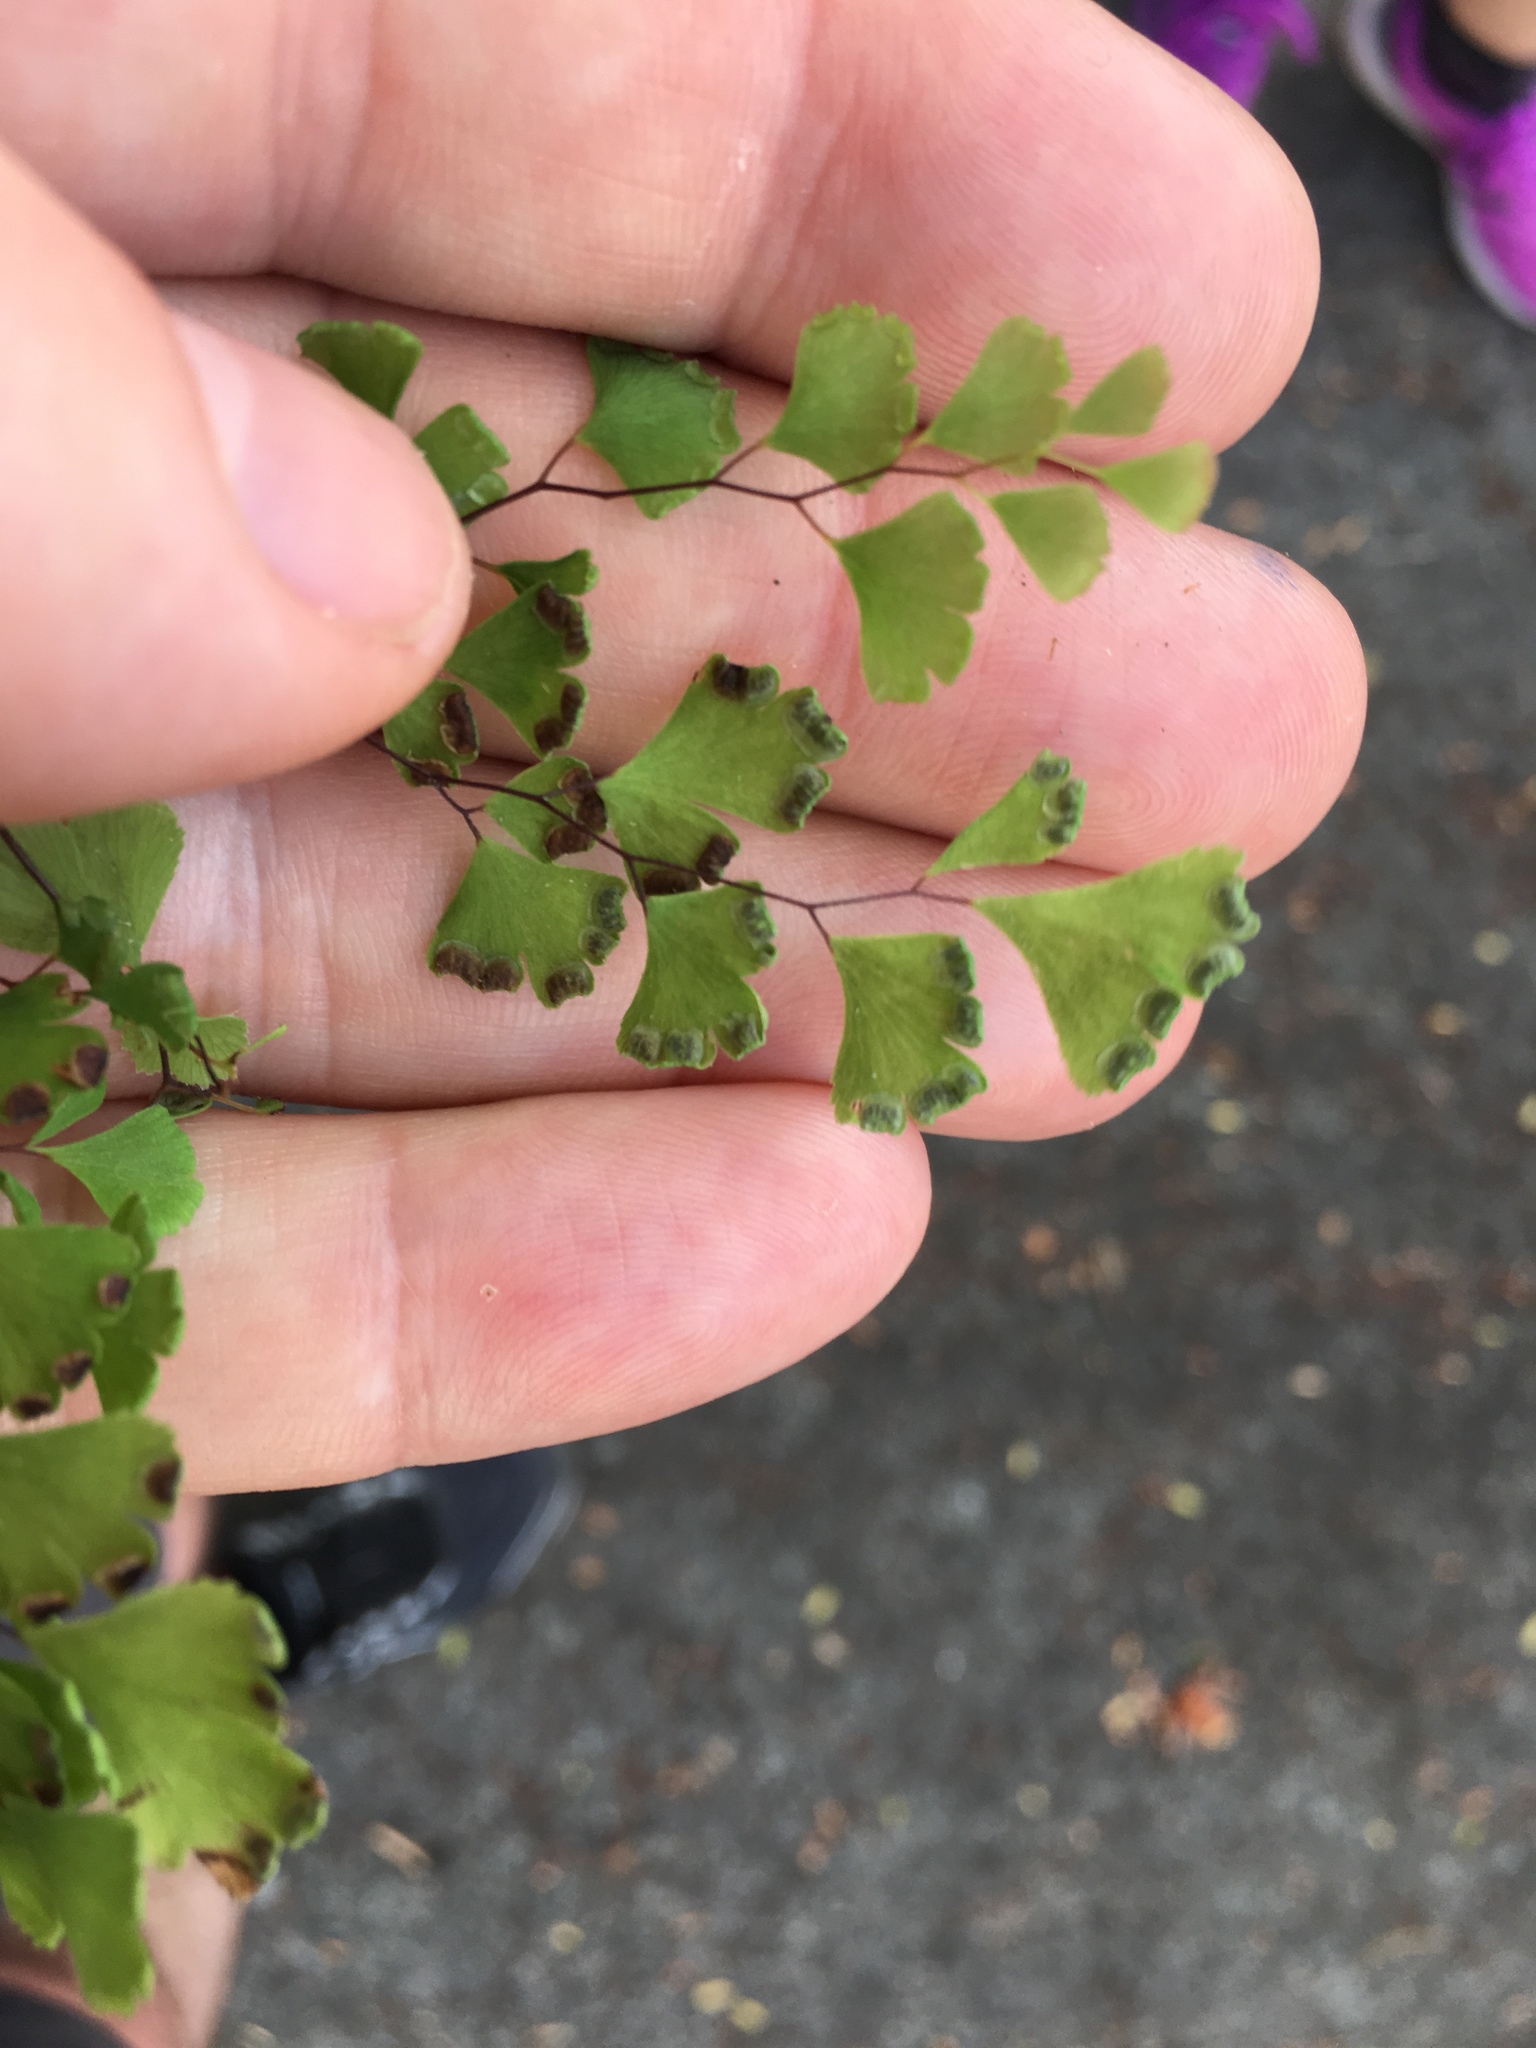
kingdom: Plantae
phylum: Tracheophyta
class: Polypodiopsida
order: Polypodiales
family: Pteridaceae
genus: Adiantum
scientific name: Adiantum capillus-veneris
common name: Maidenhair fern
